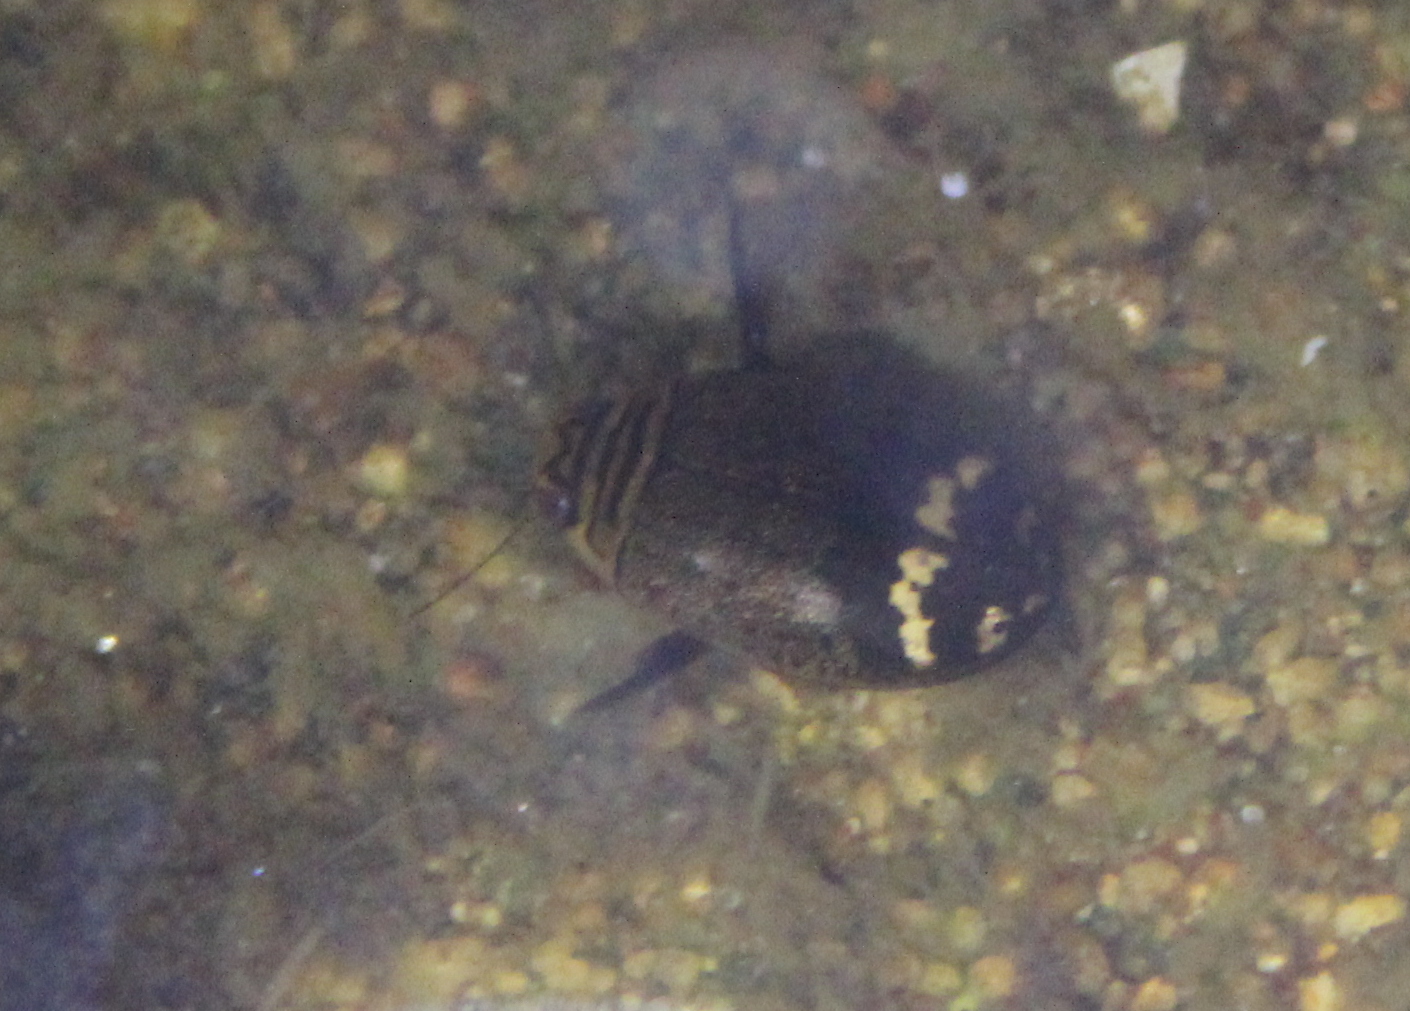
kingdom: Animalia
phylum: Arthropoda
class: Insecta
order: Coleoptera
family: Dytiscidae
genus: Acilius
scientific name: Acilius mediatus
